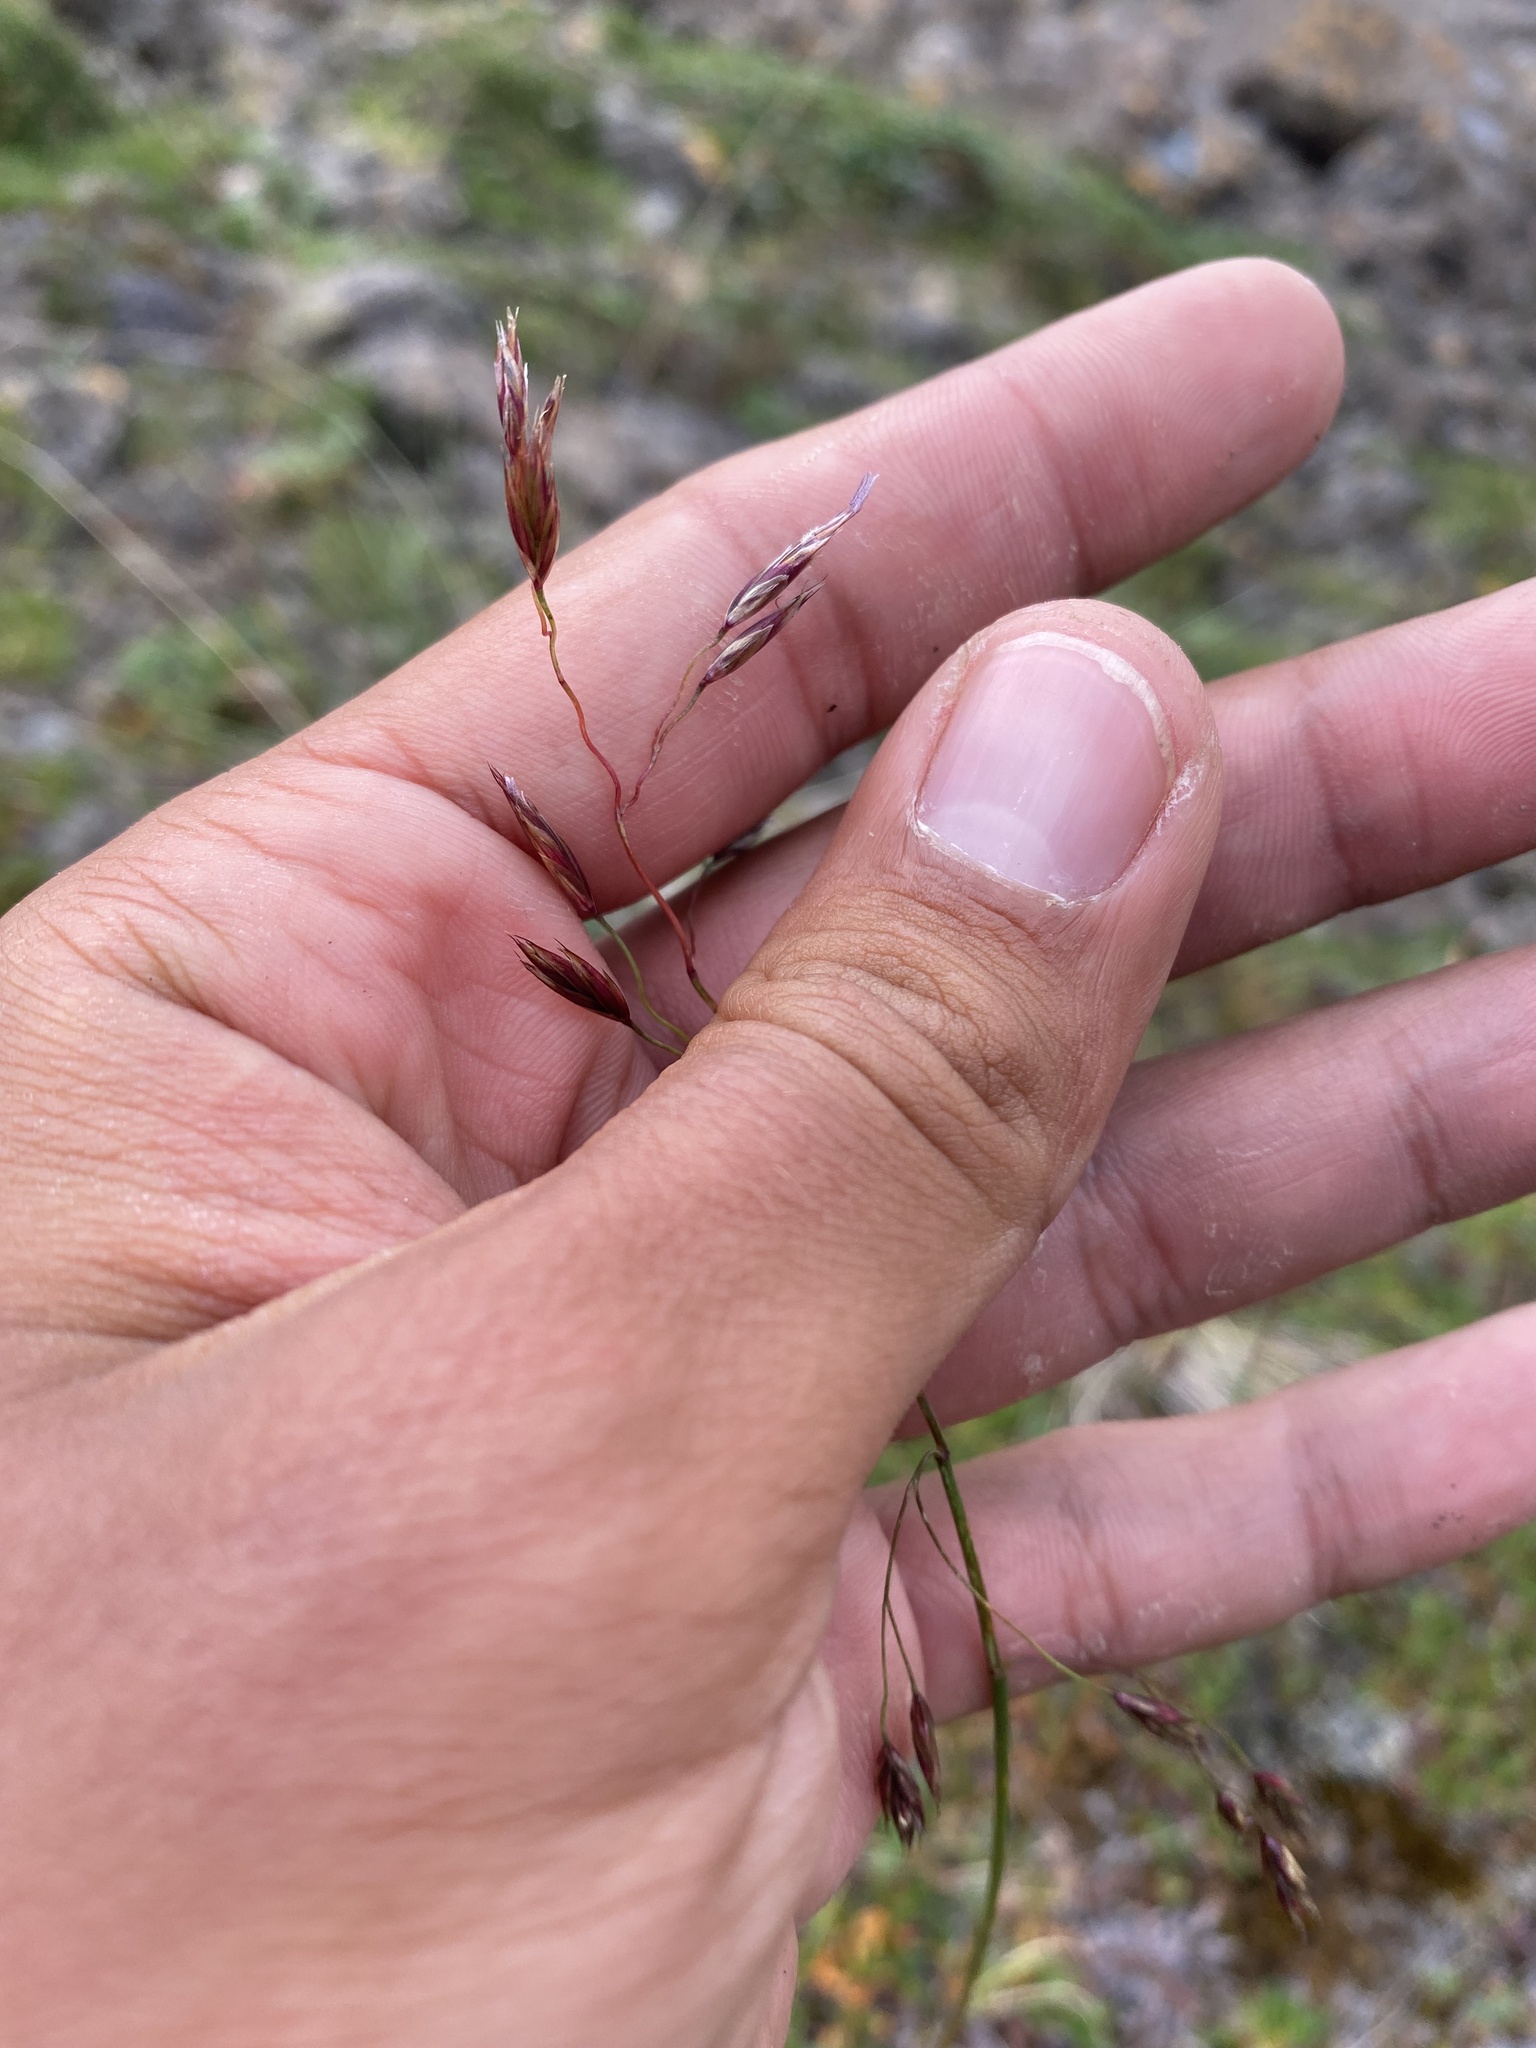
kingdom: Plantae
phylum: Tracheophyta
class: Liliopsida
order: Poales
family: Poaceae
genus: Festuca
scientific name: Festuca altaica
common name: Northern rough fescue
